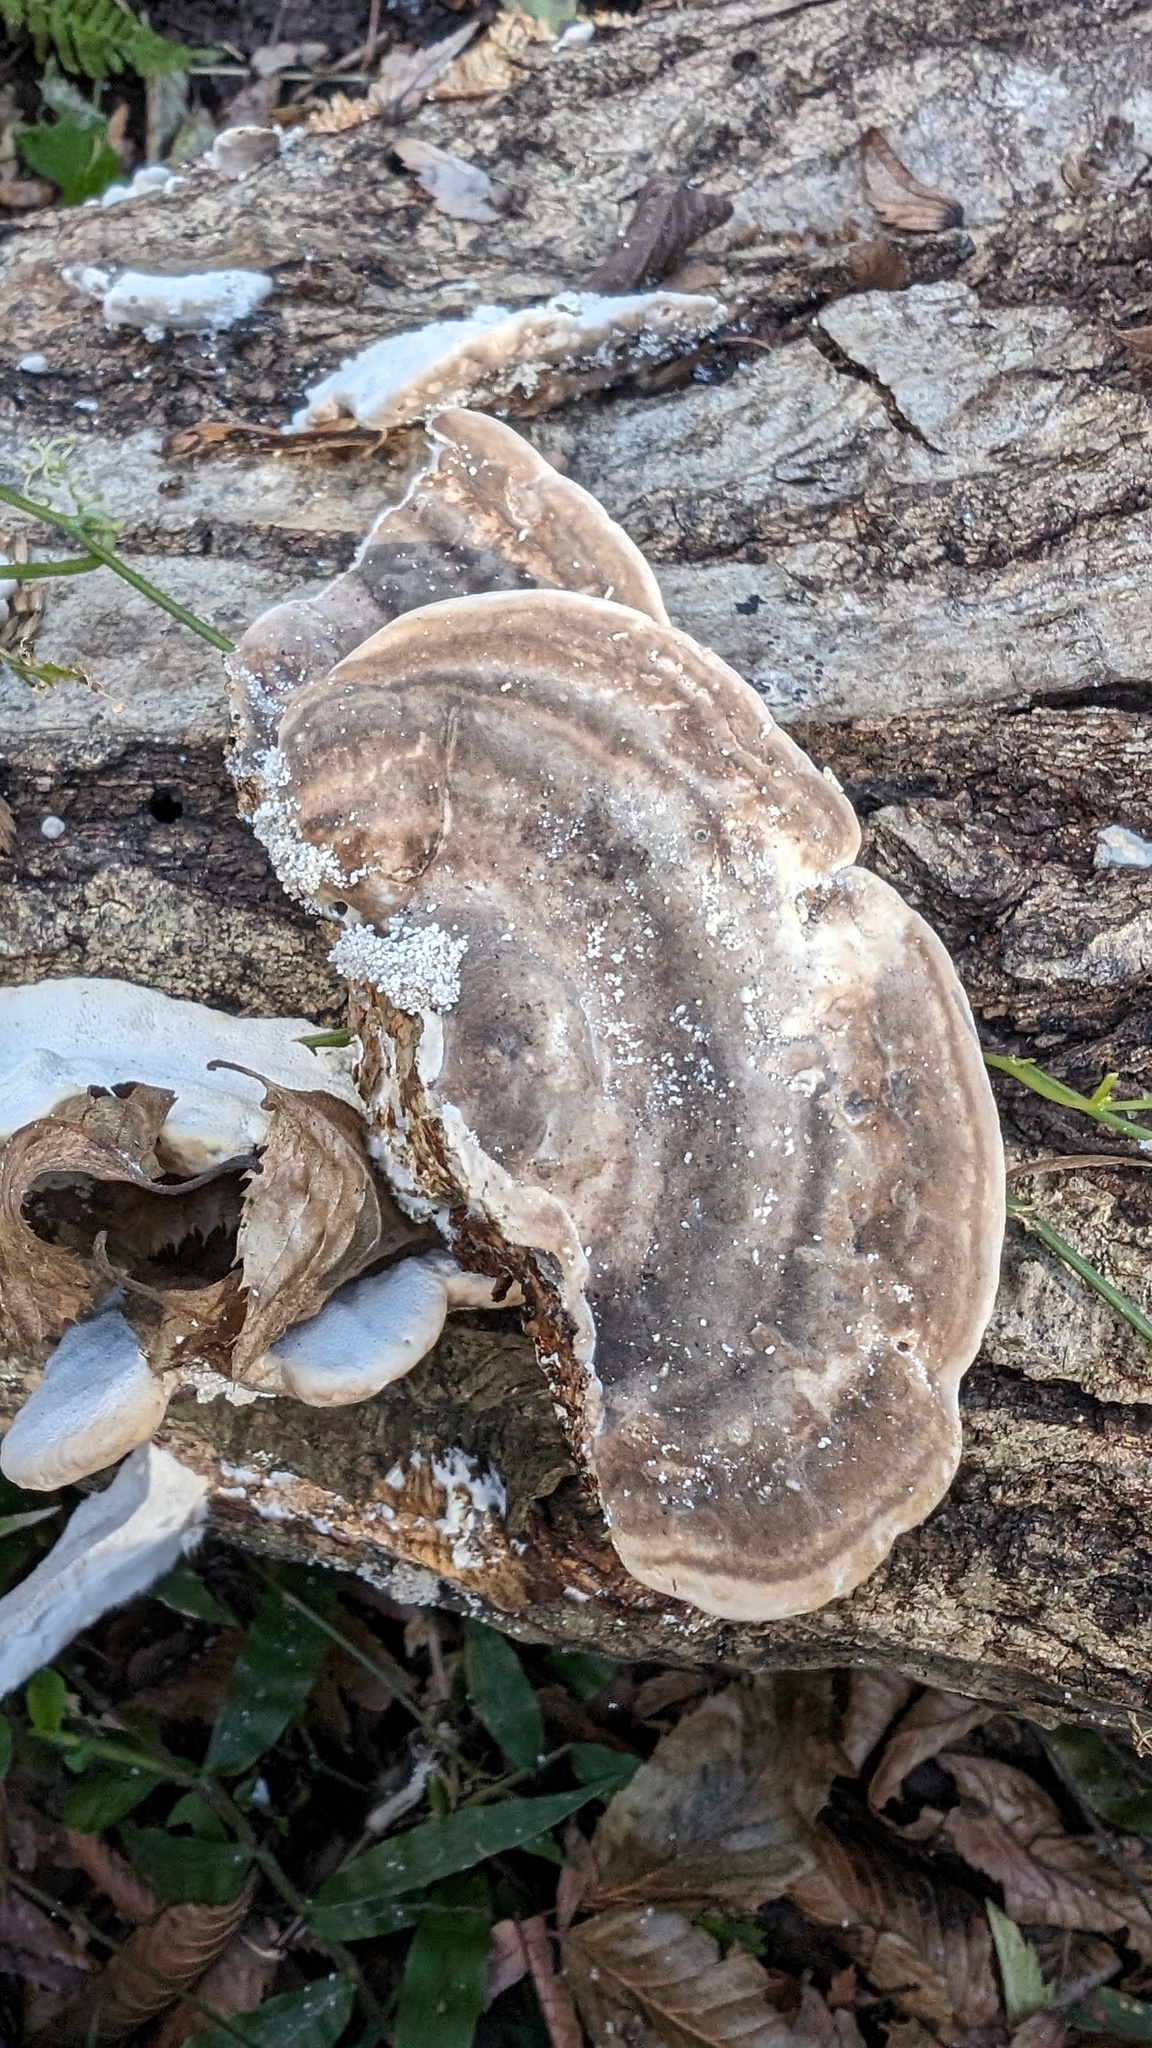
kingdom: Fungi
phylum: Basidiomycota
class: Agaricomycetes
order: Polyporales
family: Polyporaceae
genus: Trametes
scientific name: Trametes orientalis
